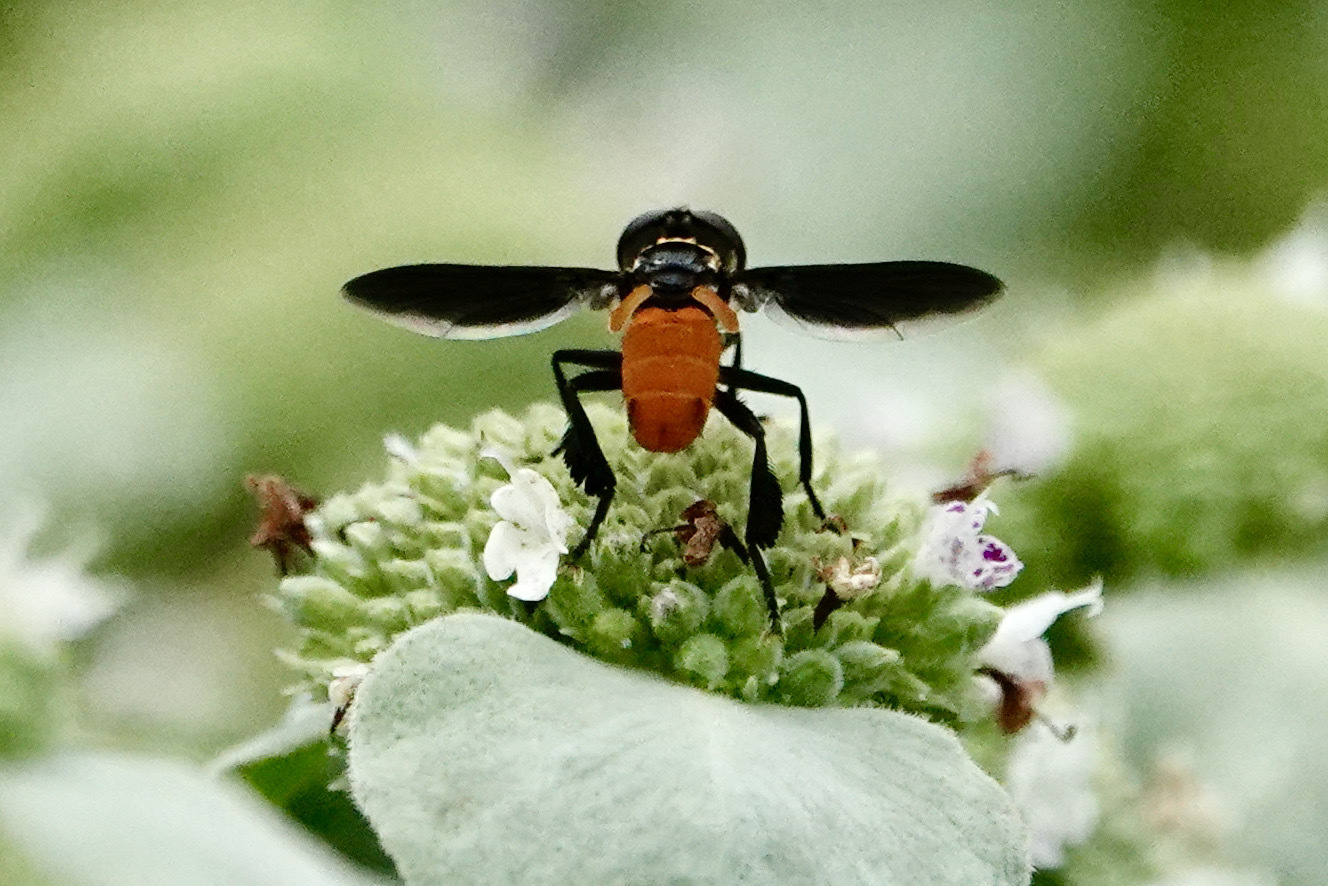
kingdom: Animalia
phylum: Arthropoda
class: Insecta
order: Diptera
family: Tachinidae
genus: Trichopoda
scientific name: Trichopoda pennipes
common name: Tachinid fly
